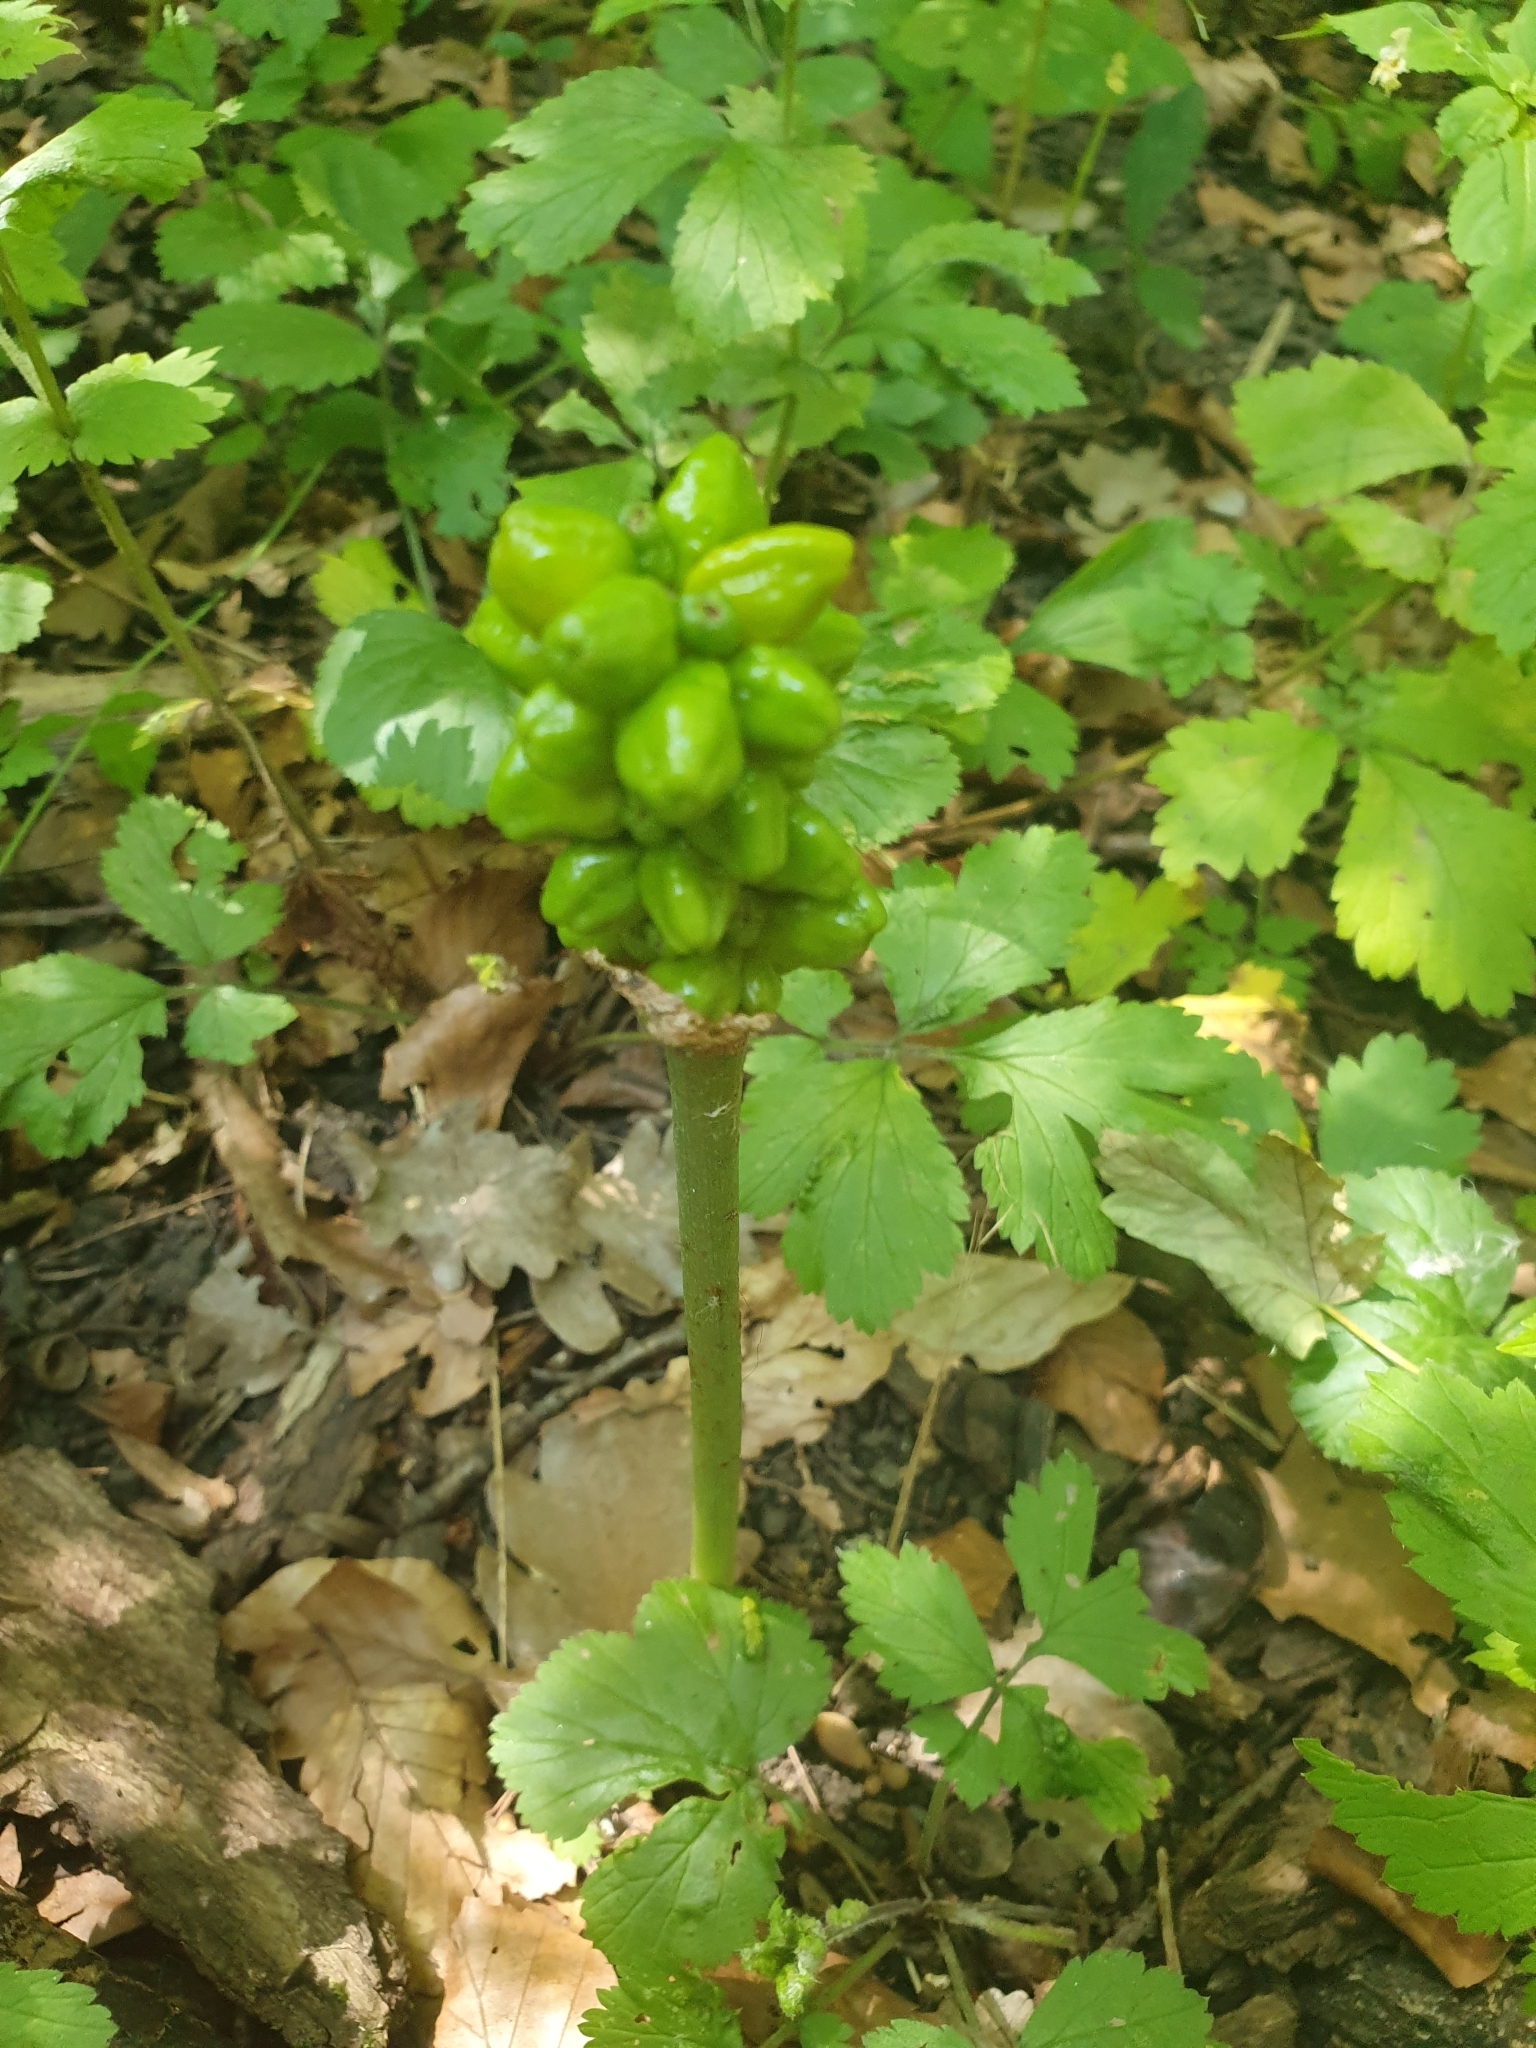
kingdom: Plantae
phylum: Tracheophyta
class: Liliopsida
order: Alismatales
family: Araceae
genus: Arum
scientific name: Arum cylindraceum
